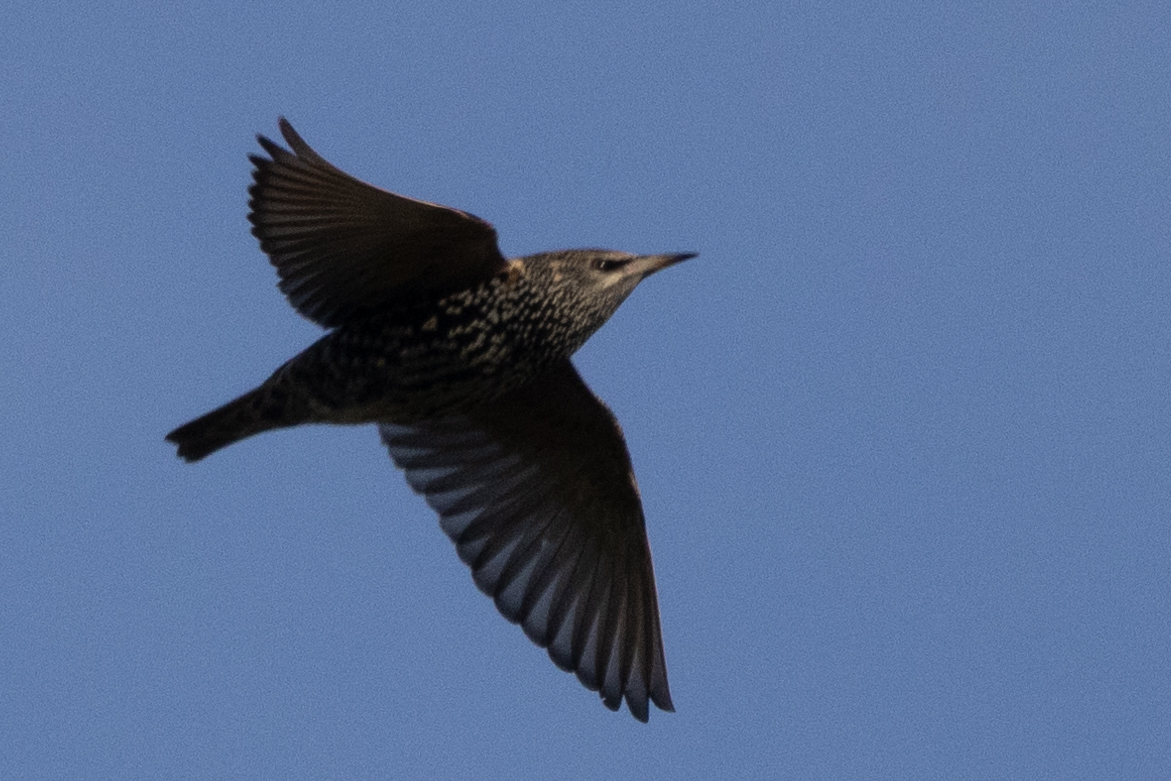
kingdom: Animalia
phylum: Chordata
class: Aves
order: Passeriformes
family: Sturnidae
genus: Sturnus
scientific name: Sturnus vulgaris
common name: Common starling
